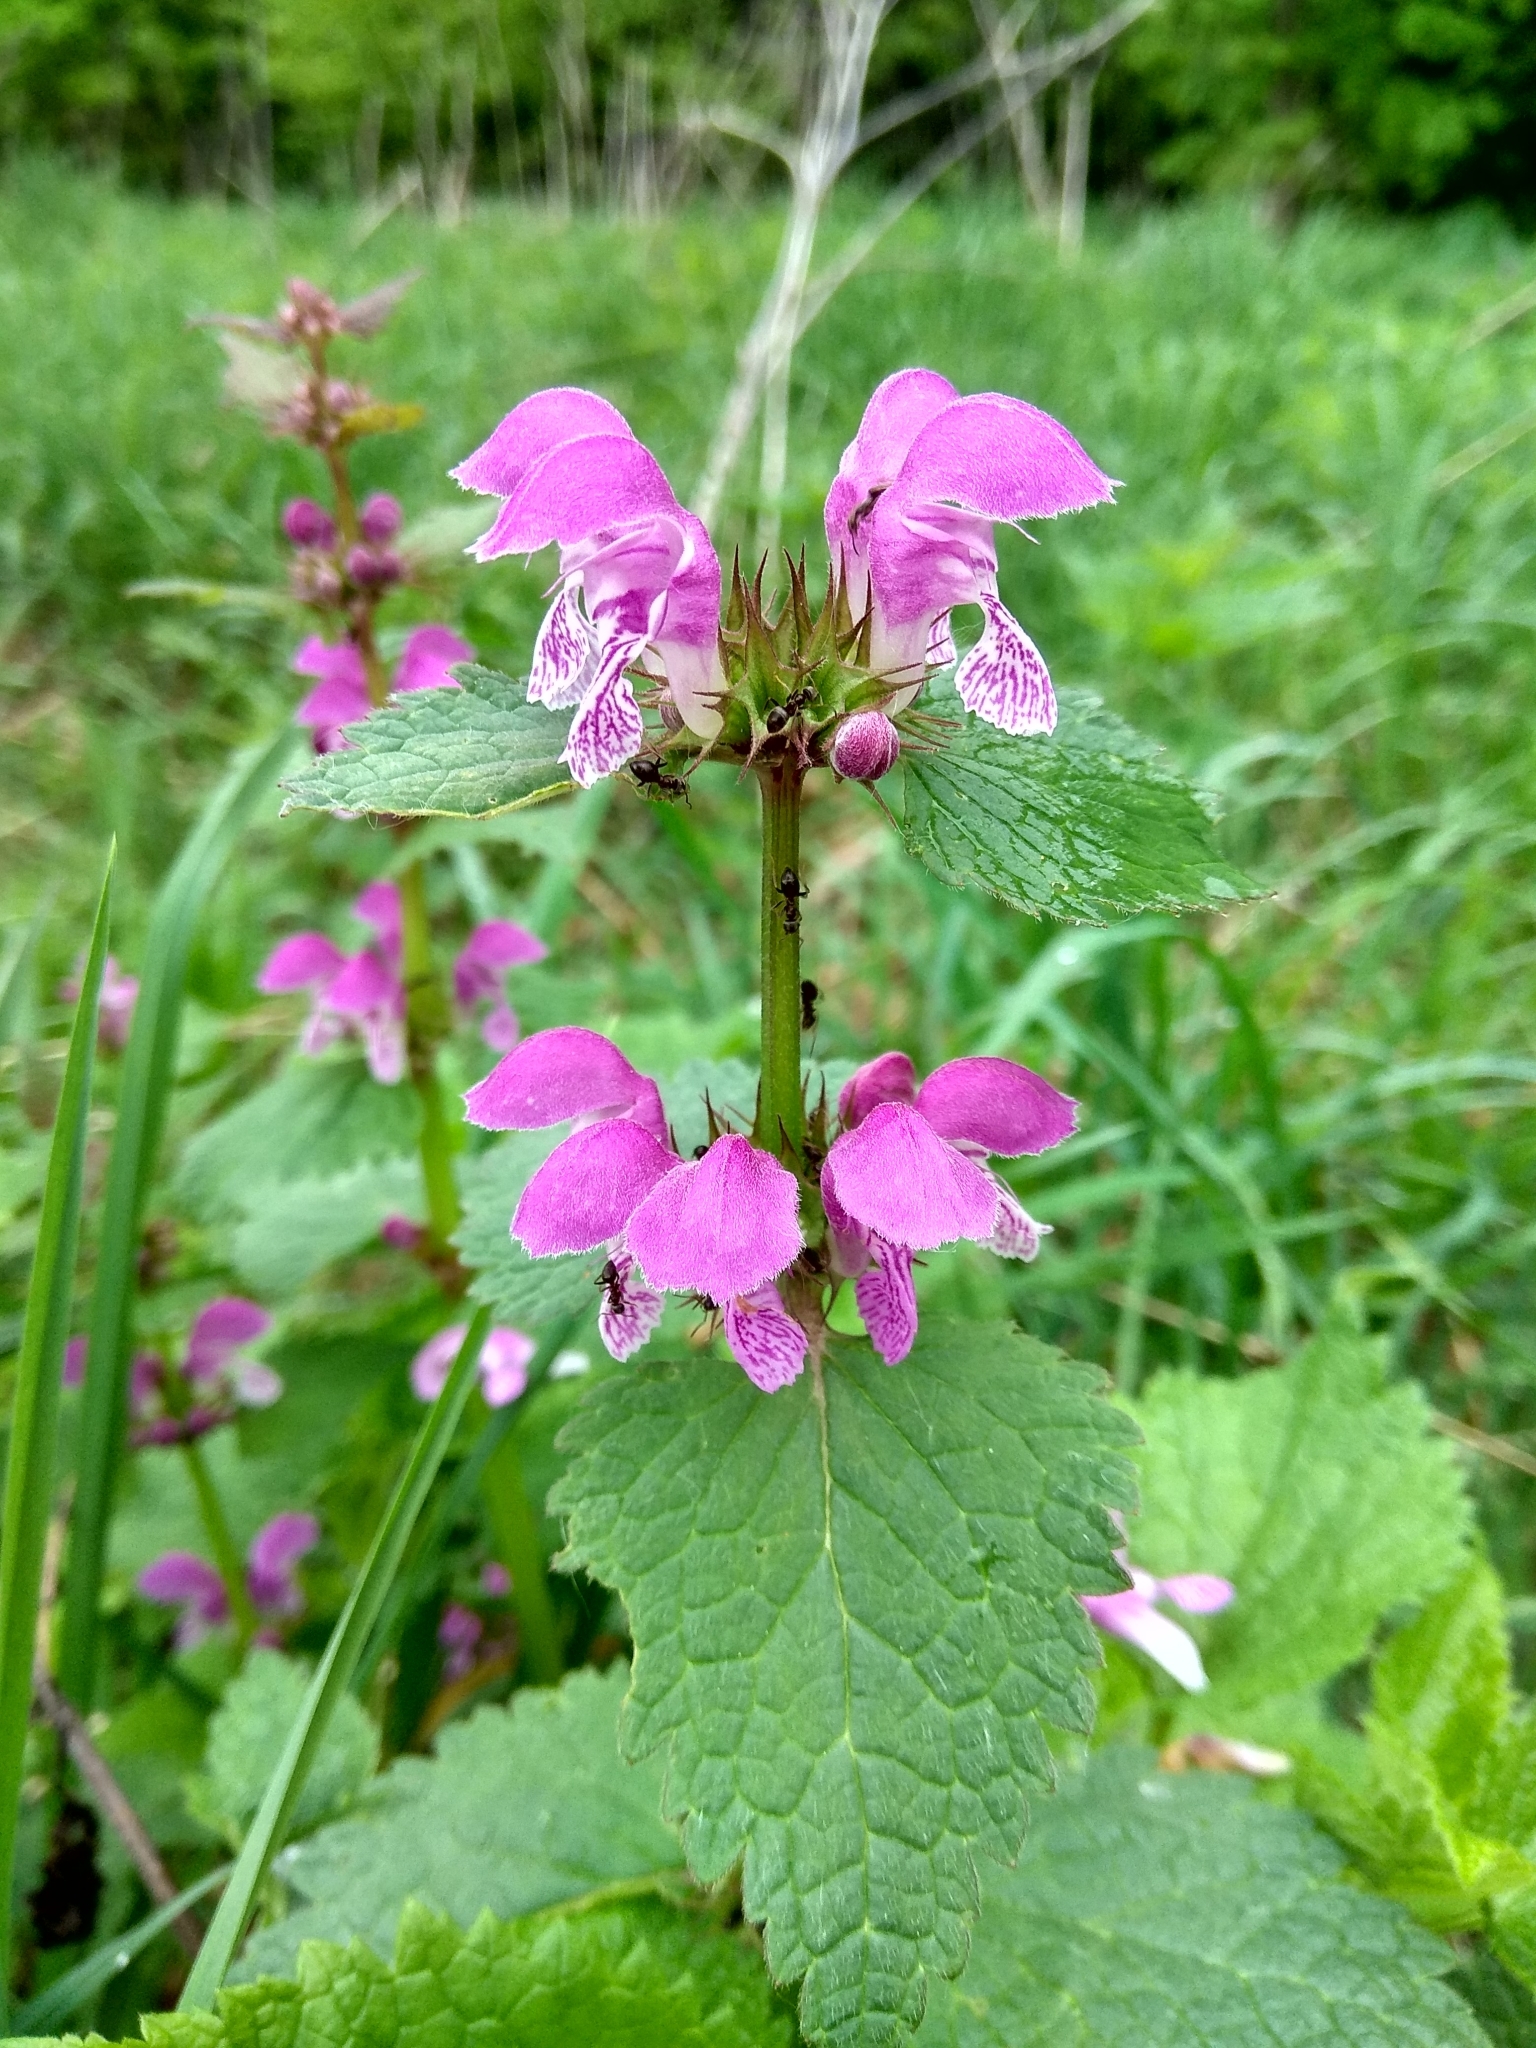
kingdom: Plantae
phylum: Tracheophyta
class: Magnoliopsida
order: Lamiales
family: Lamiaceae
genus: Lamium
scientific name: Lamium maculatum
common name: Spotted dead-nettle
